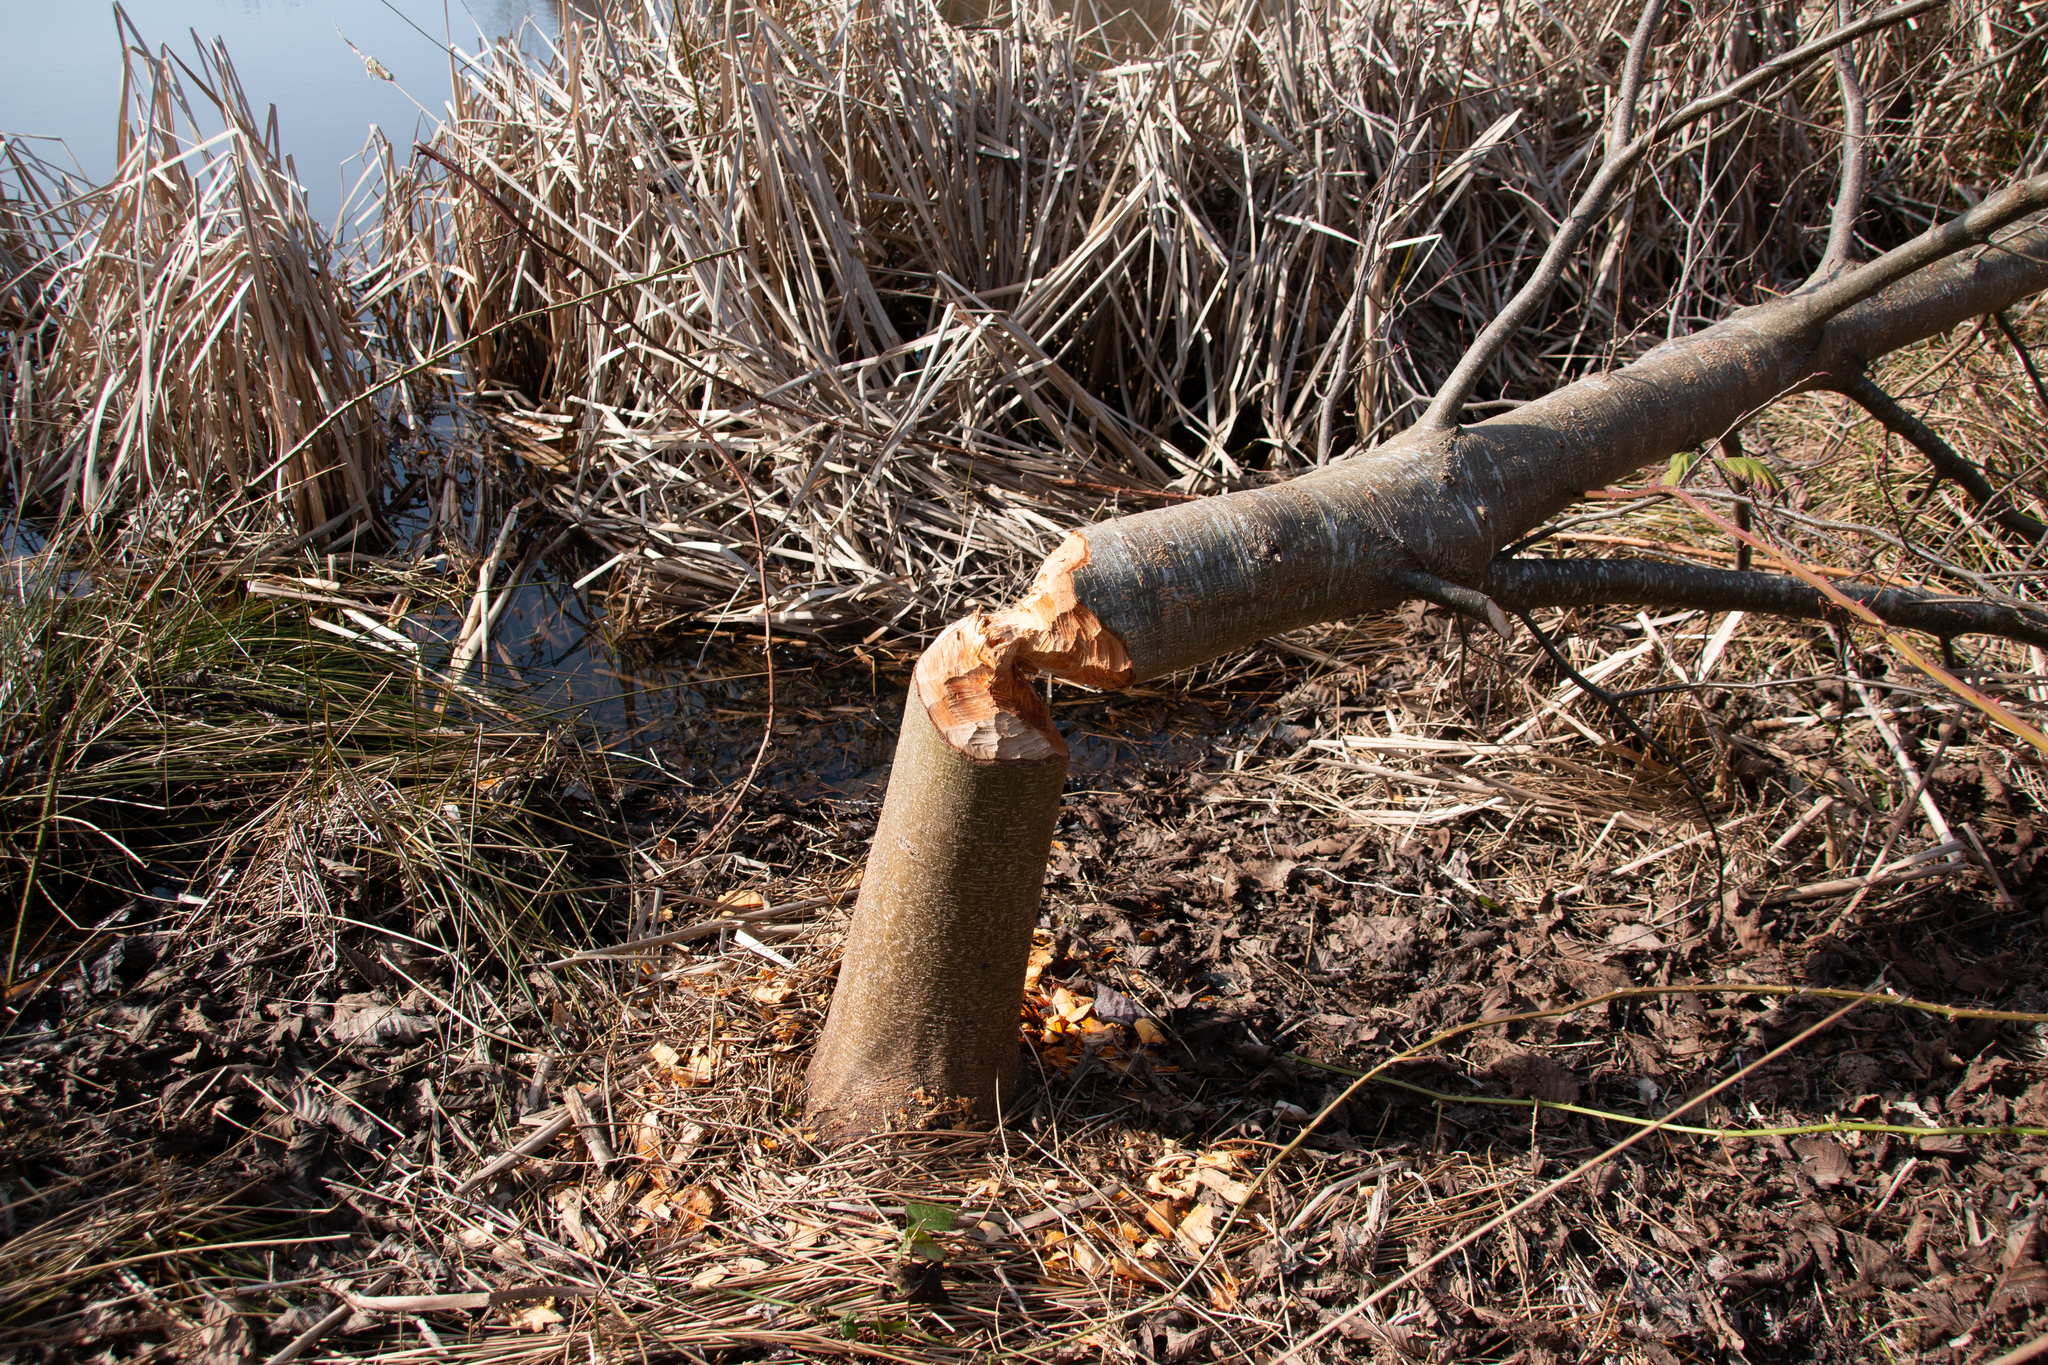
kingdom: Animalia
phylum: Chordata
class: Mammalia
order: Rodentia
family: Castoridae
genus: Castor
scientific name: Castor canadensis
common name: American beaver
